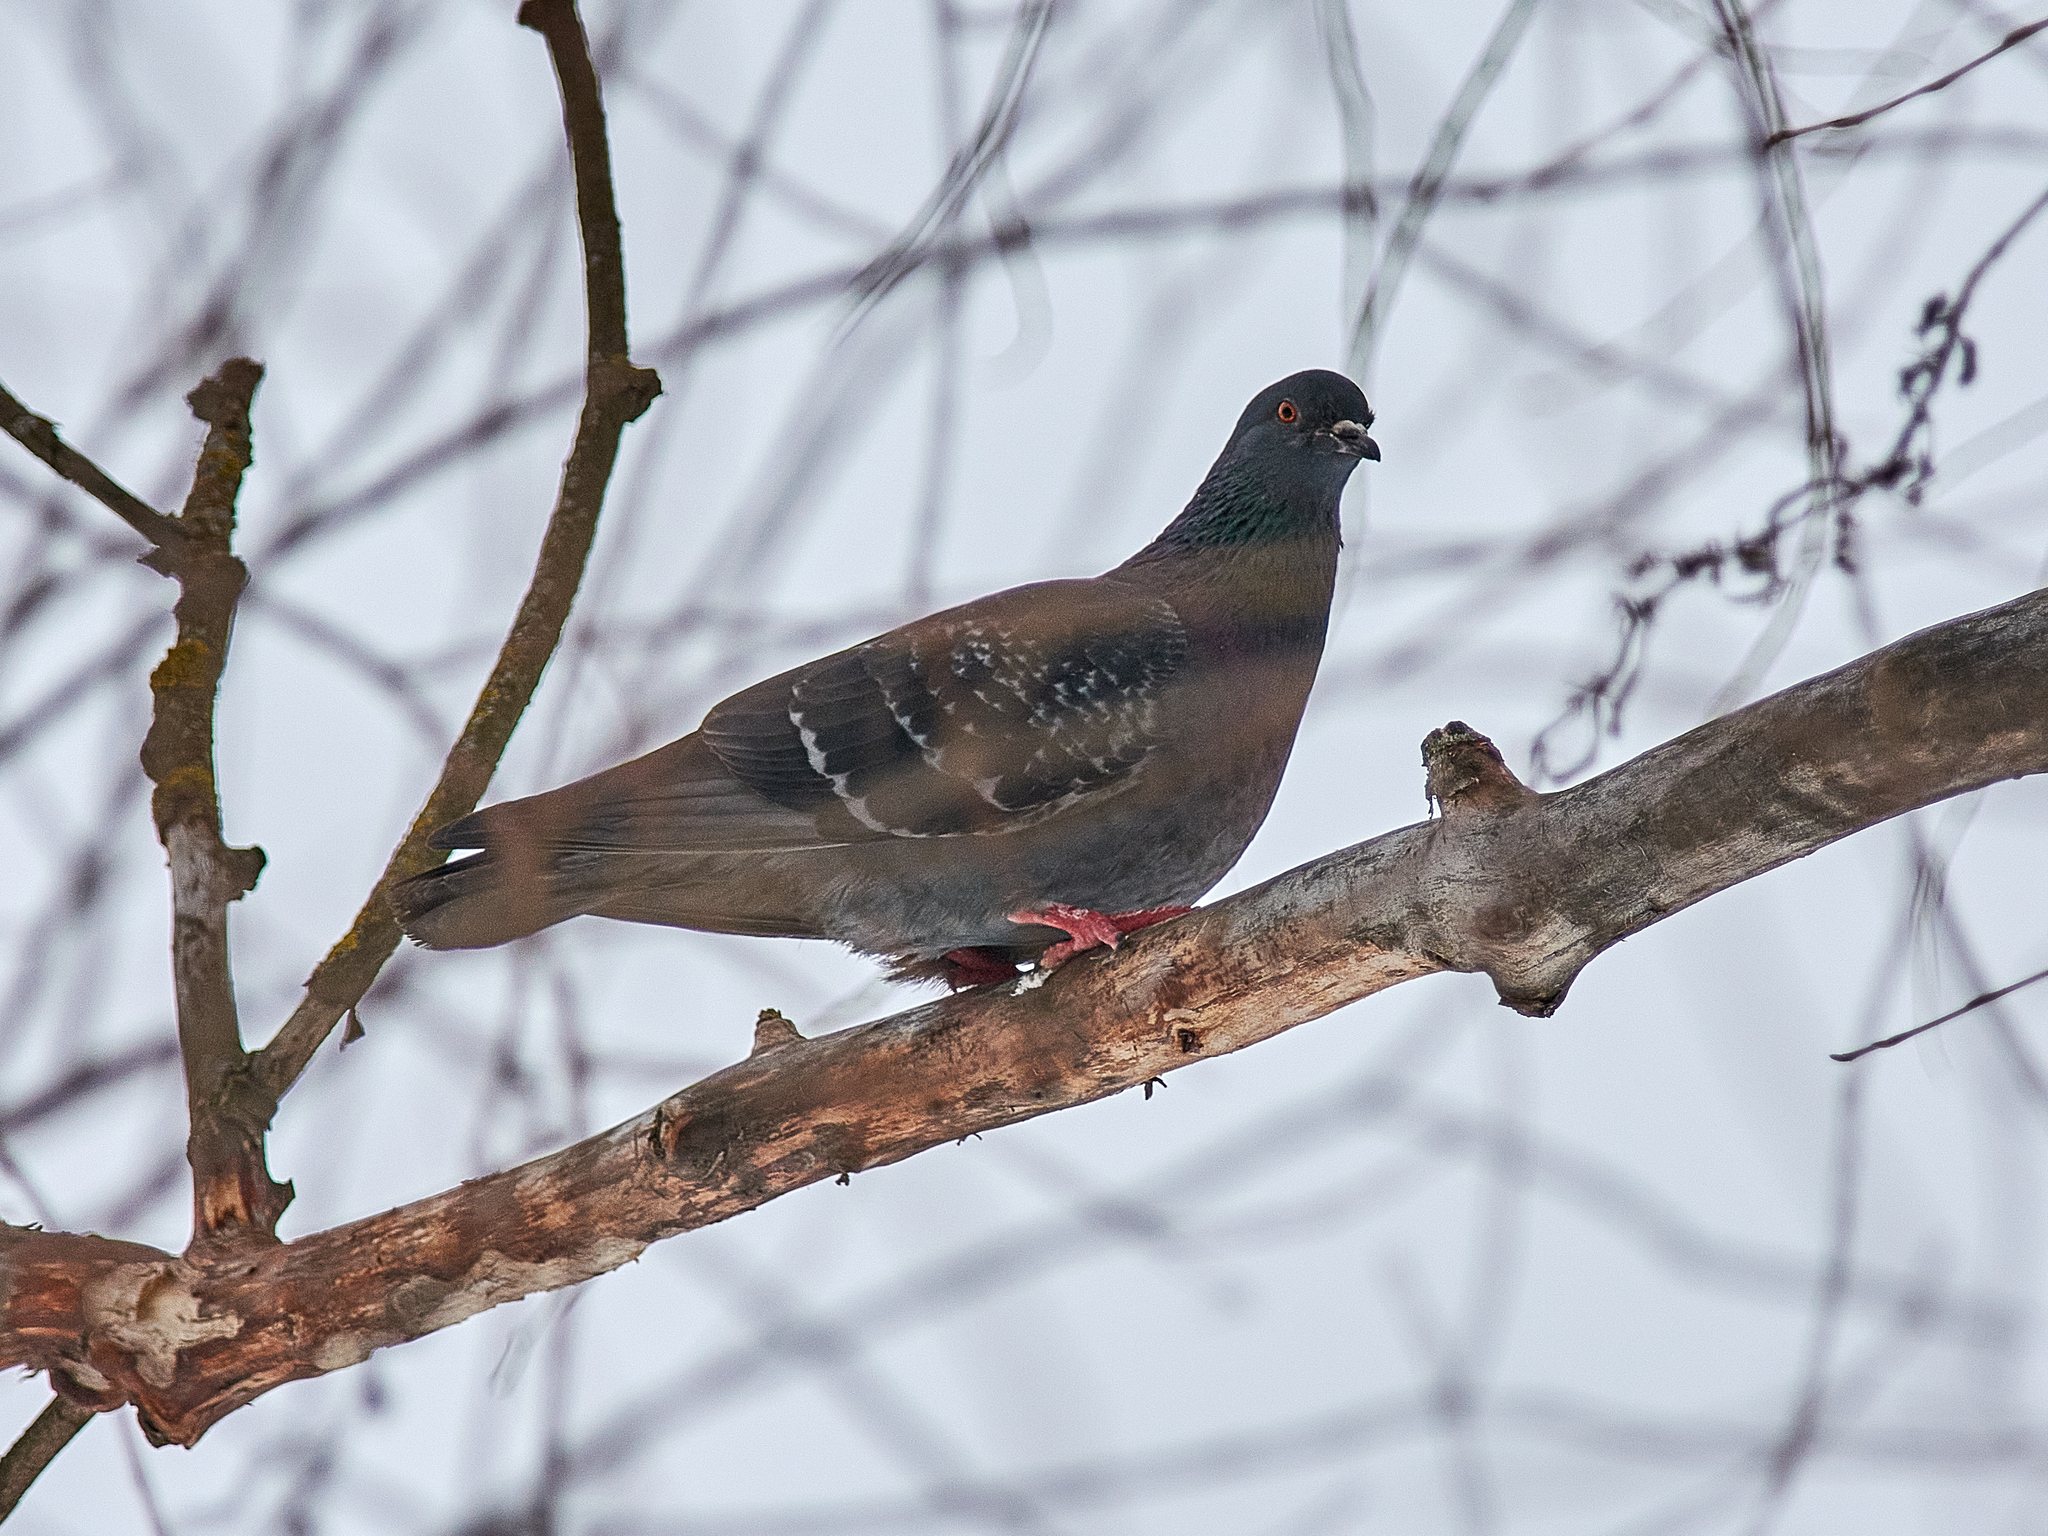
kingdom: Animalia
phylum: Chordata
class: Aves
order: Columbiformes
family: Columbidae
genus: Columba
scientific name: Columba livia
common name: Rock pigeon
